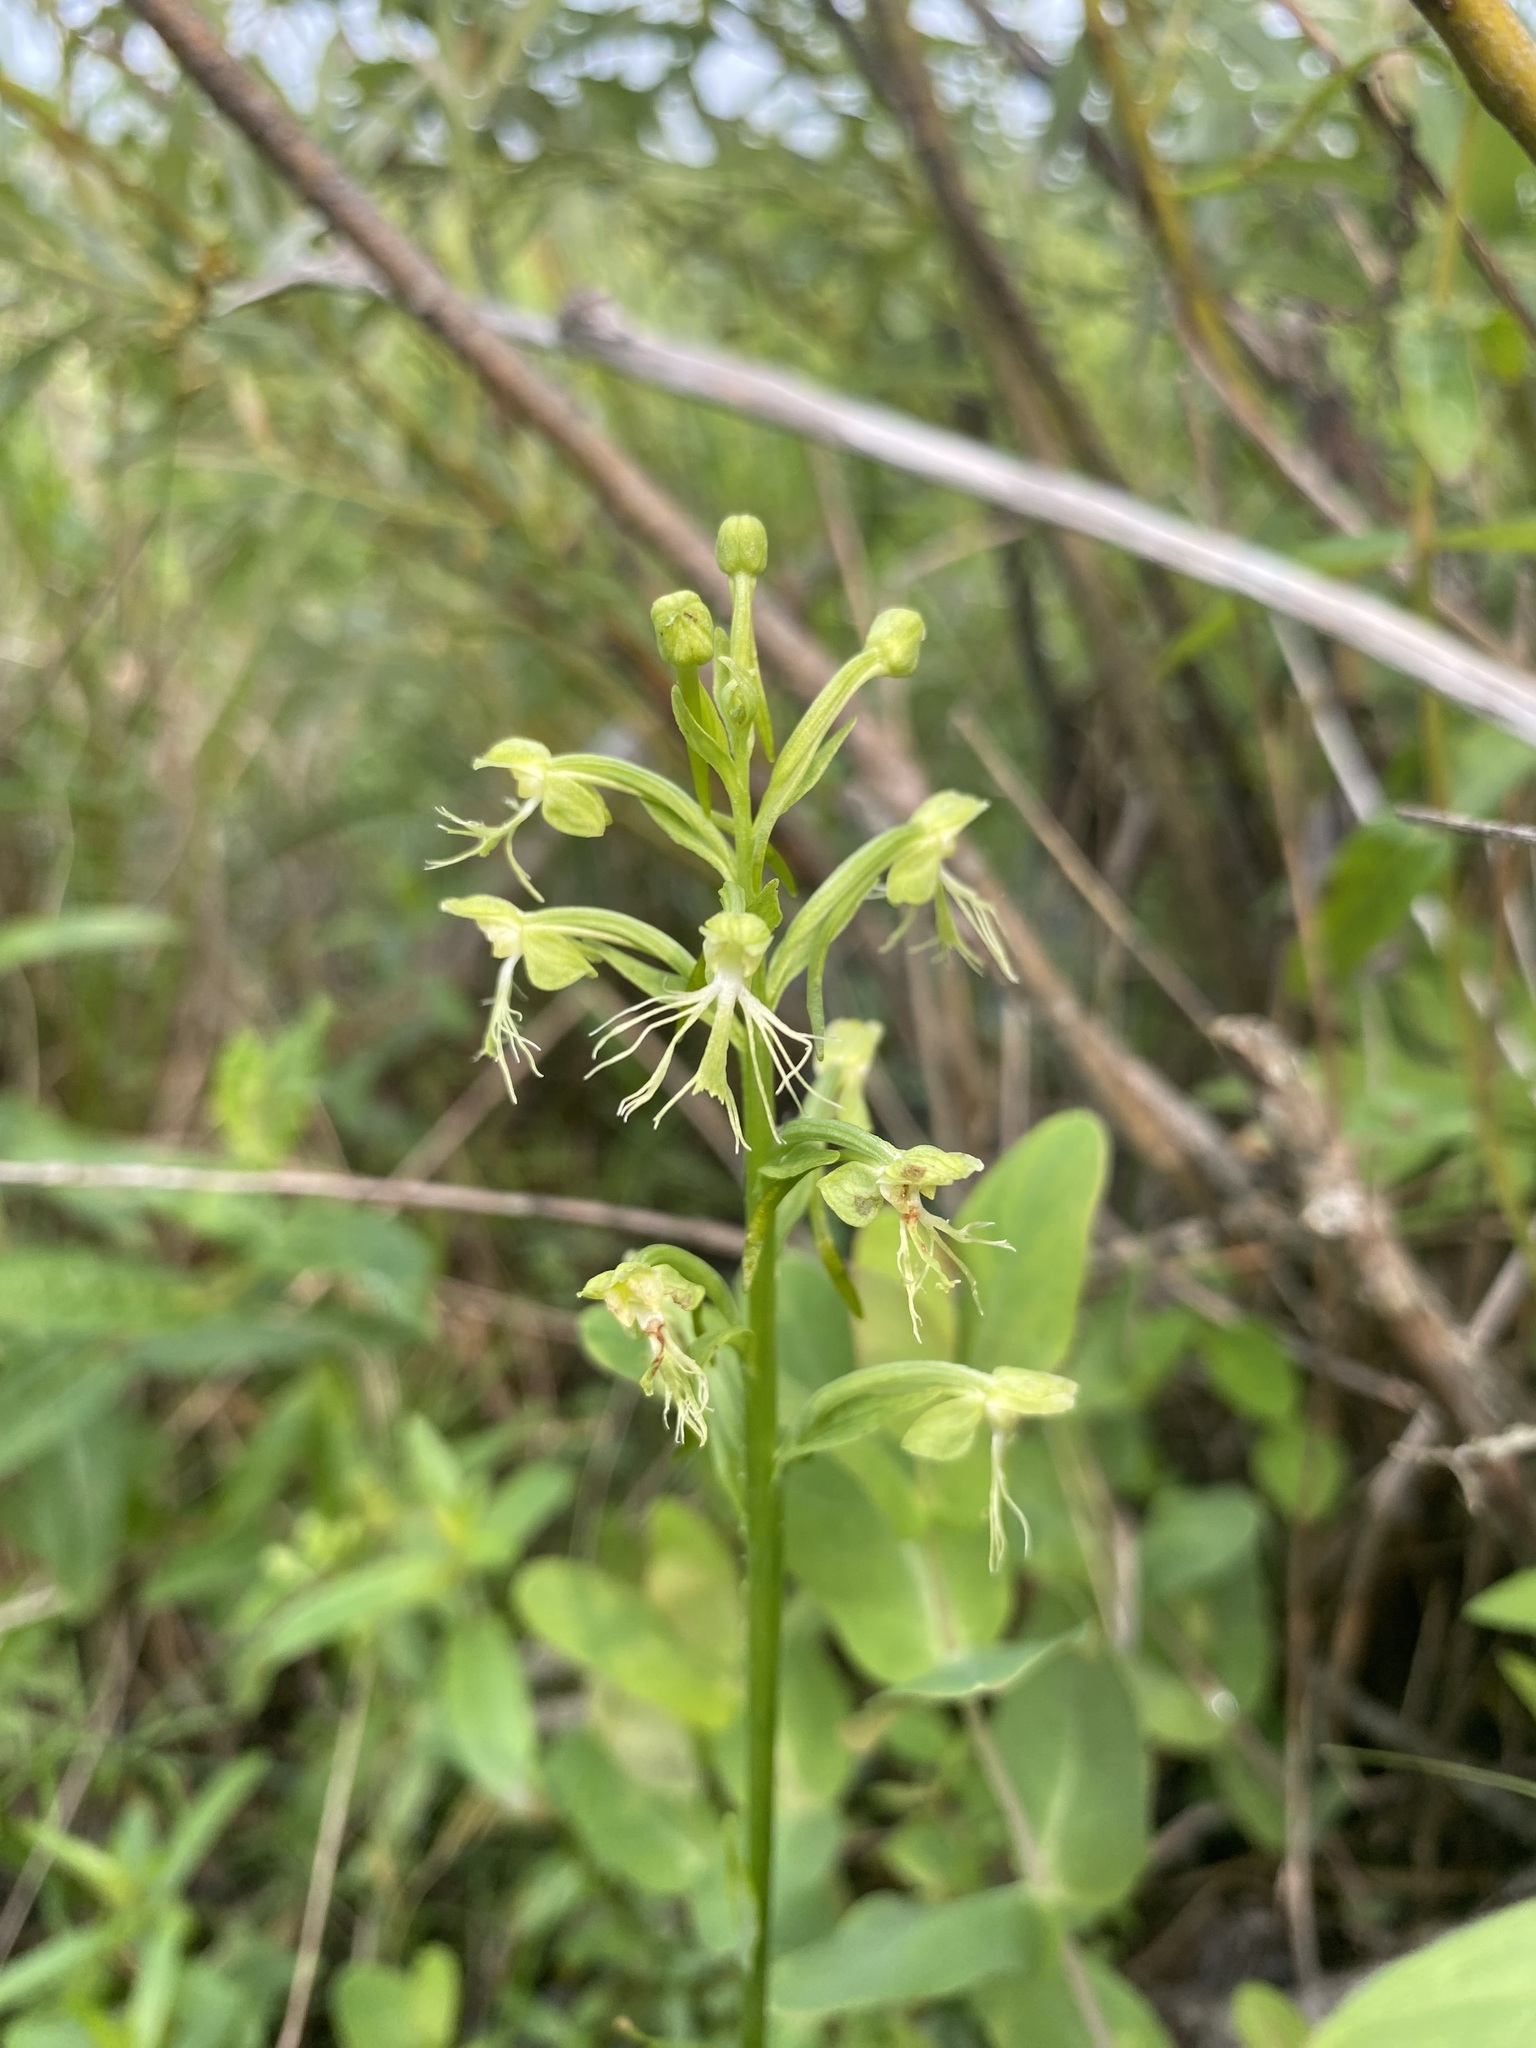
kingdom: Plantae
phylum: Tracheophyta
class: Liliopsida
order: Asparagales
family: Orchidaceae
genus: Platanthera
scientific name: Platanthera lacera
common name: Green fringed orchid
